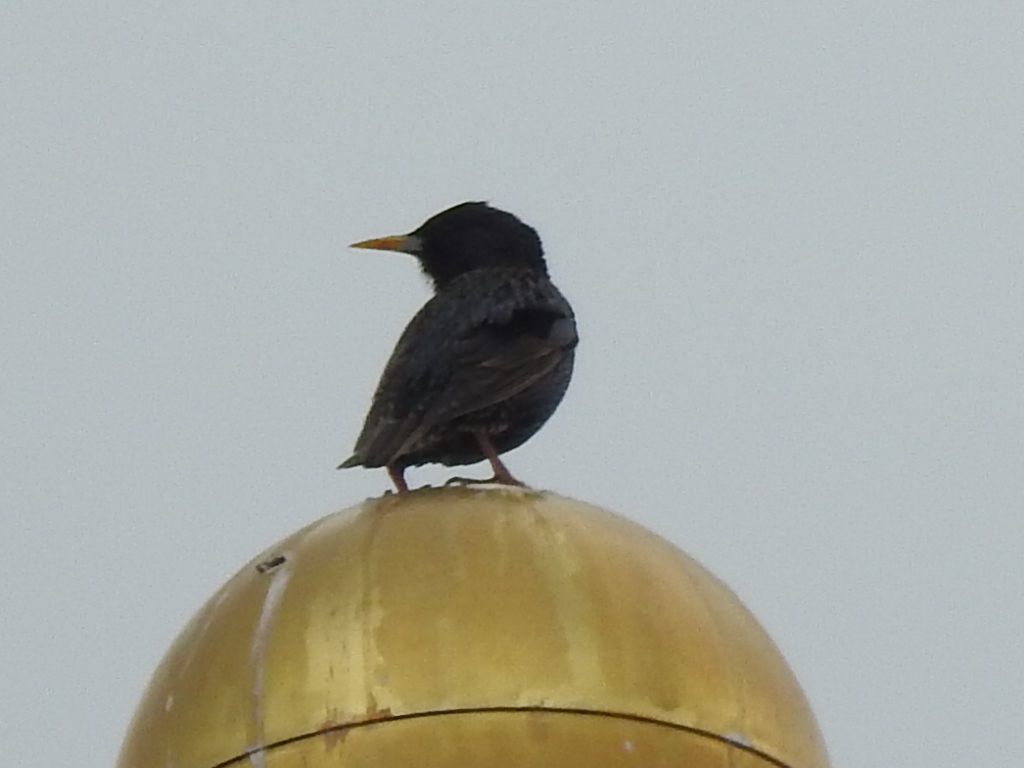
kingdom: Animalia
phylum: Chordata
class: Aves
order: Passeriformes
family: Sturnidae
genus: Sturnus
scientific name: Sturnus vulgaris
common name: Common starling
